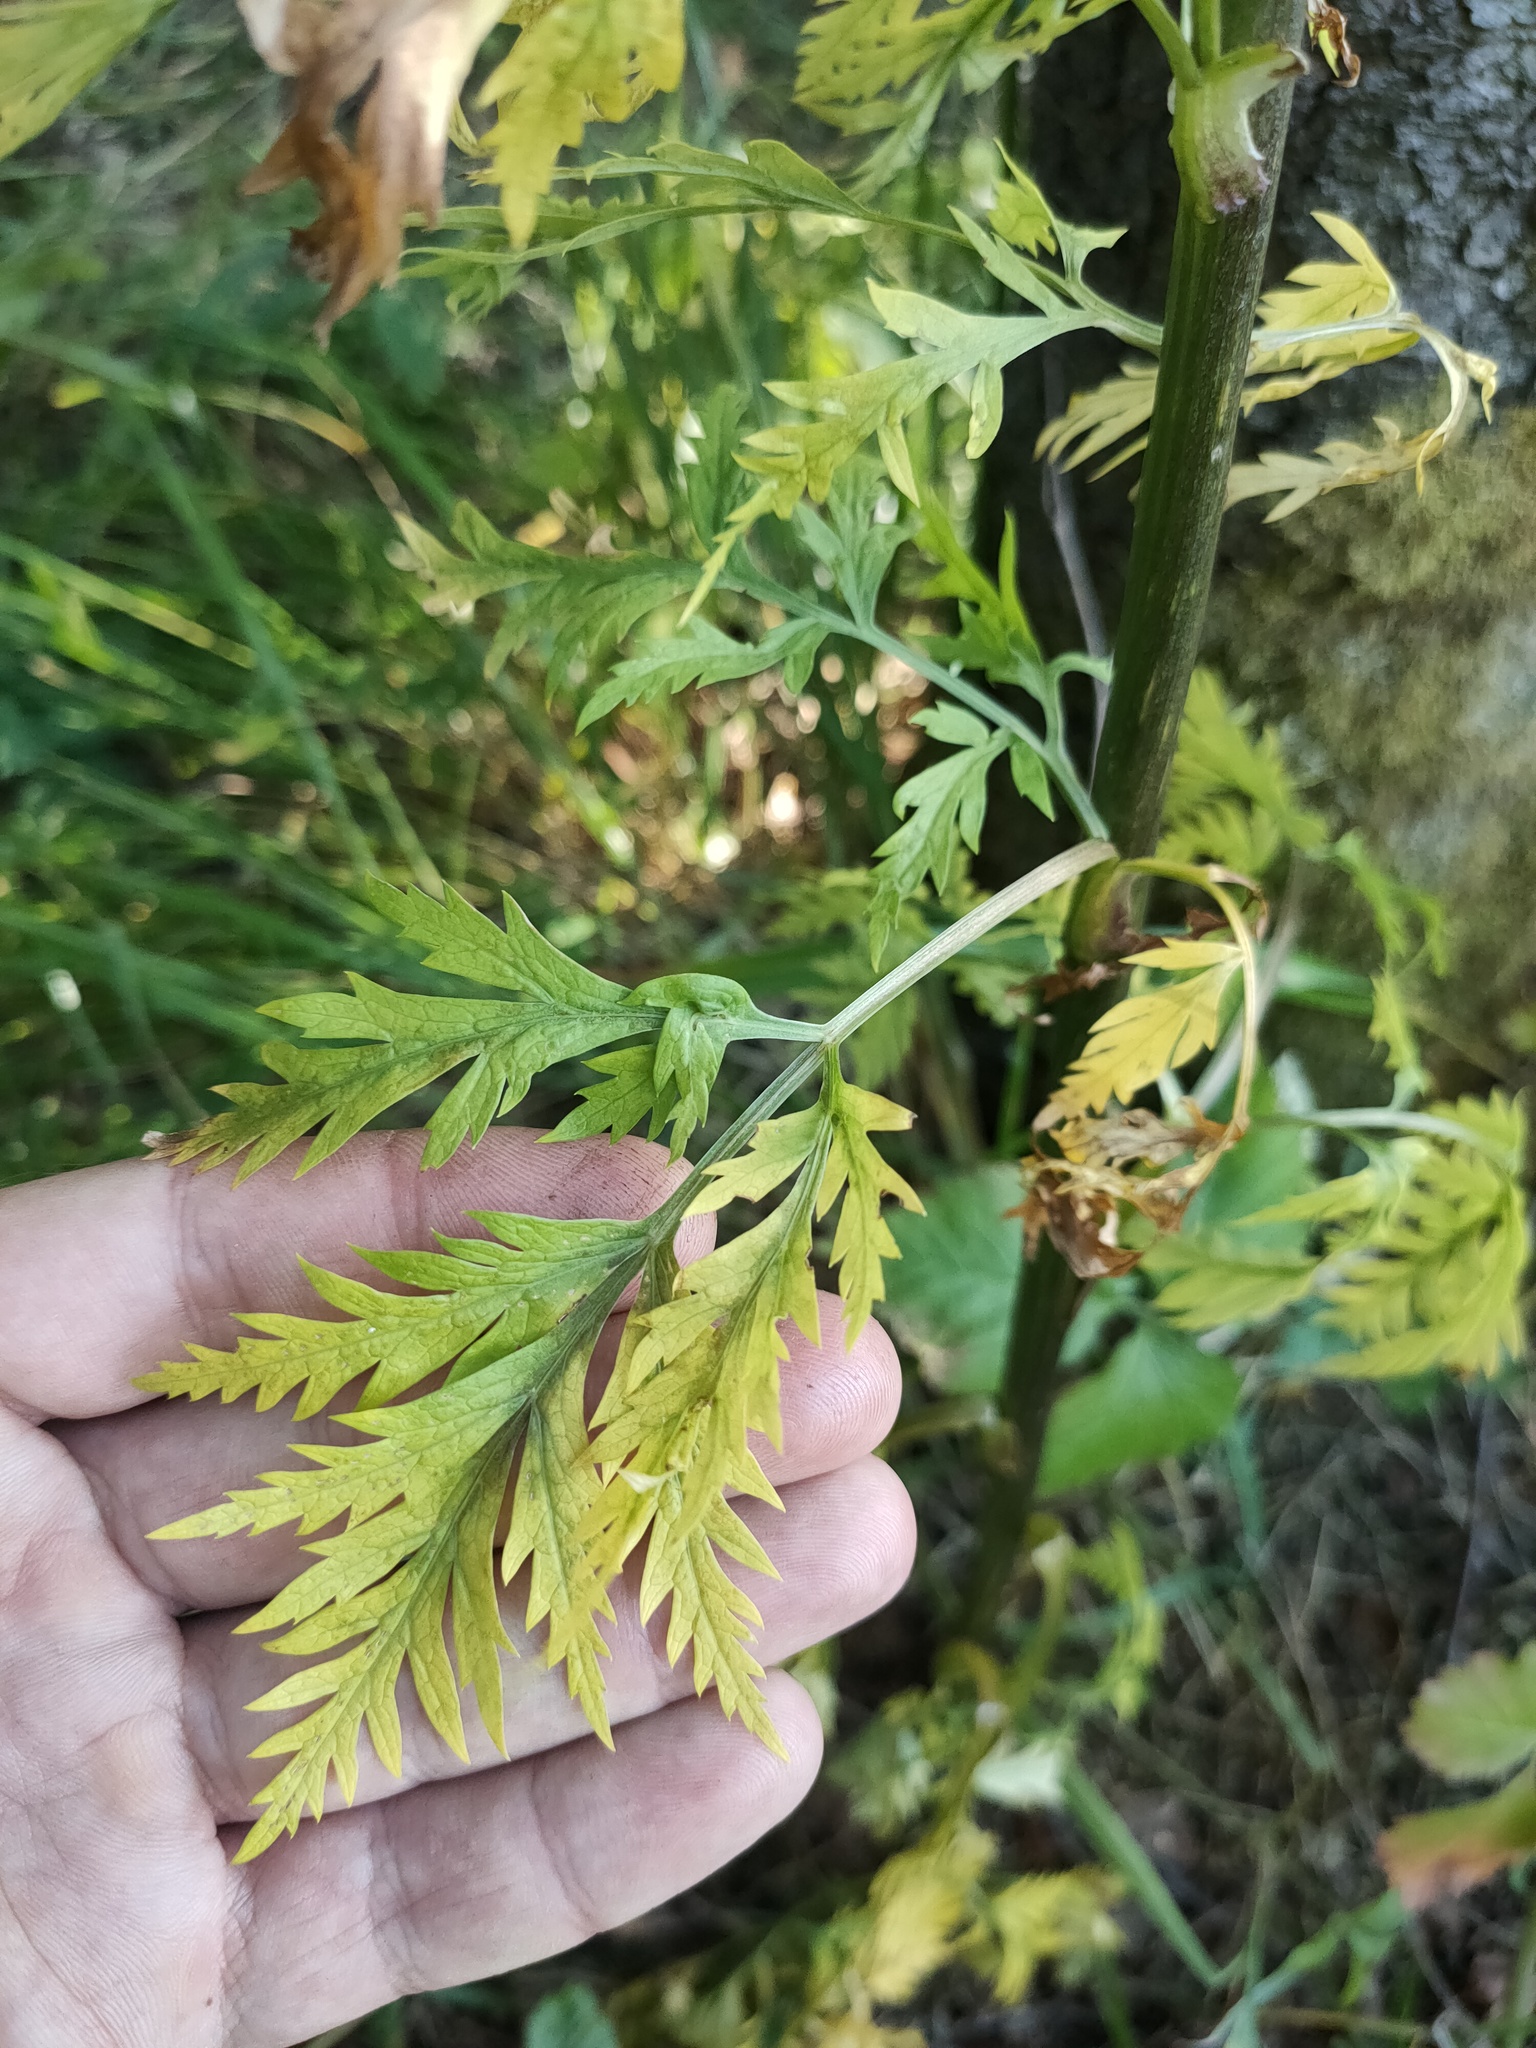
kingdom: Plantae
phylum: Tracheophyta
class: Magnoliopsida
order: Apiales
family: Apiaceae
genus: Pleurospermum
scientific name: Pleurospermum uralense
